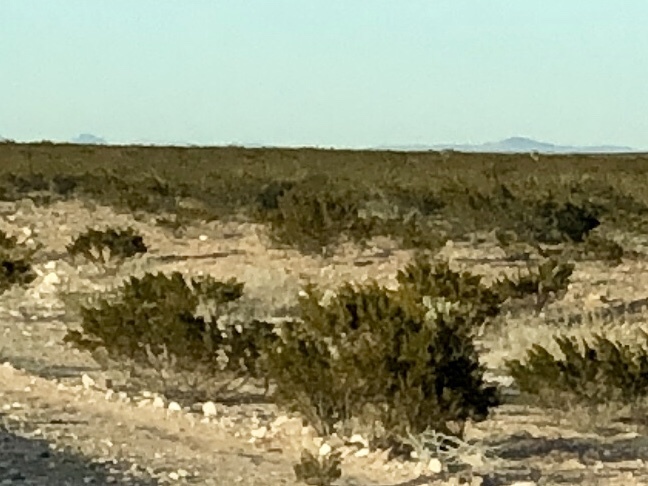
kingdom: Plantae
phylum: Tracheophyta
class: Magnoliopsida
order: Zygophyllales
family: Zygophyllaceae
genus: Larrea
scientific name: Larrea tridentata
